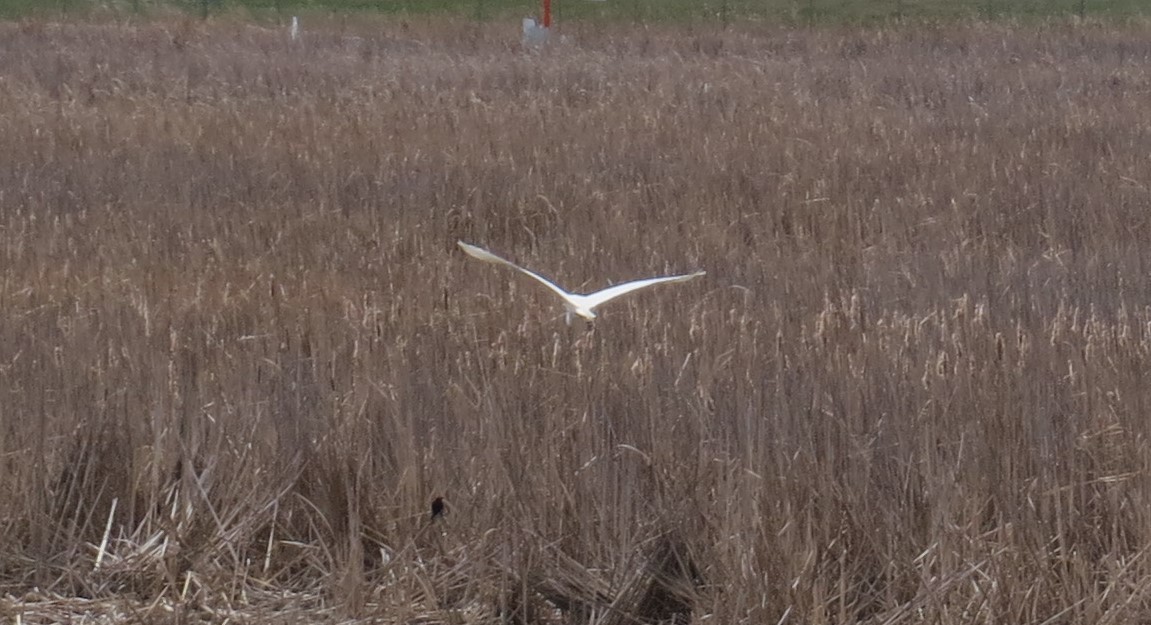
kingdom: Animalia
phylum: Chordata
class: Aves
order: Pelecaniformes
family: Ardeidae
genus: Ardea
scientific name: Ardea alba
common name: Great egret
